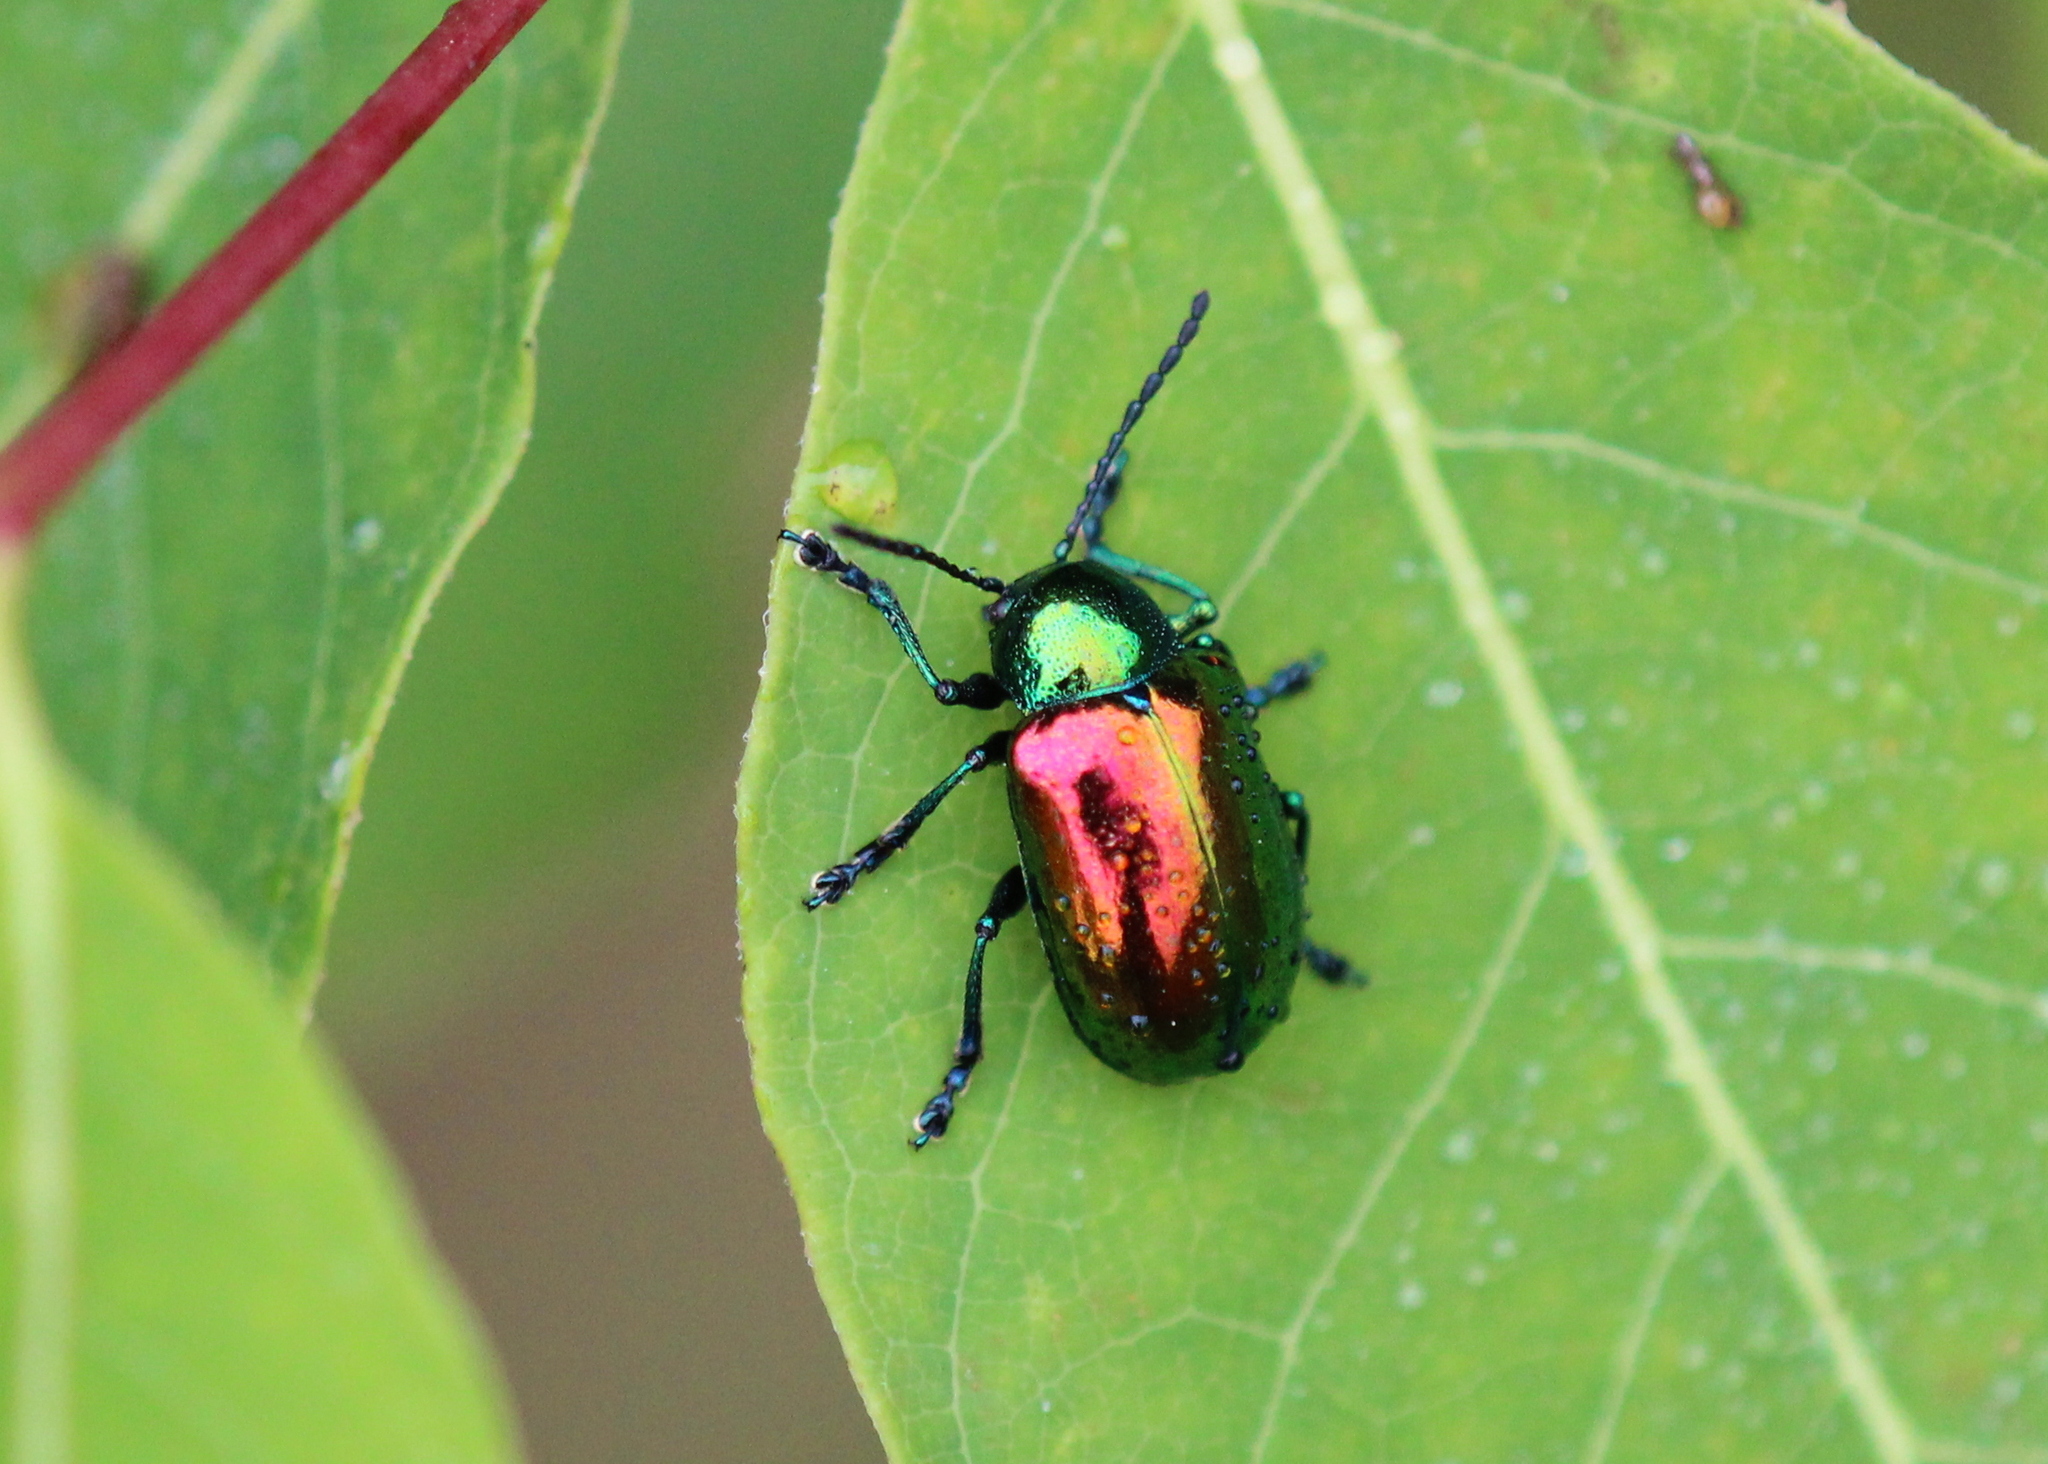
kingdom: Animalia
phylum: Arthropoda
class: Insecta
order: Coleoptera
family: Chrysomelidae
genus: Chrysochus
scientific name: Chrysochus auratus
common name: Dogbane leaf beetle
